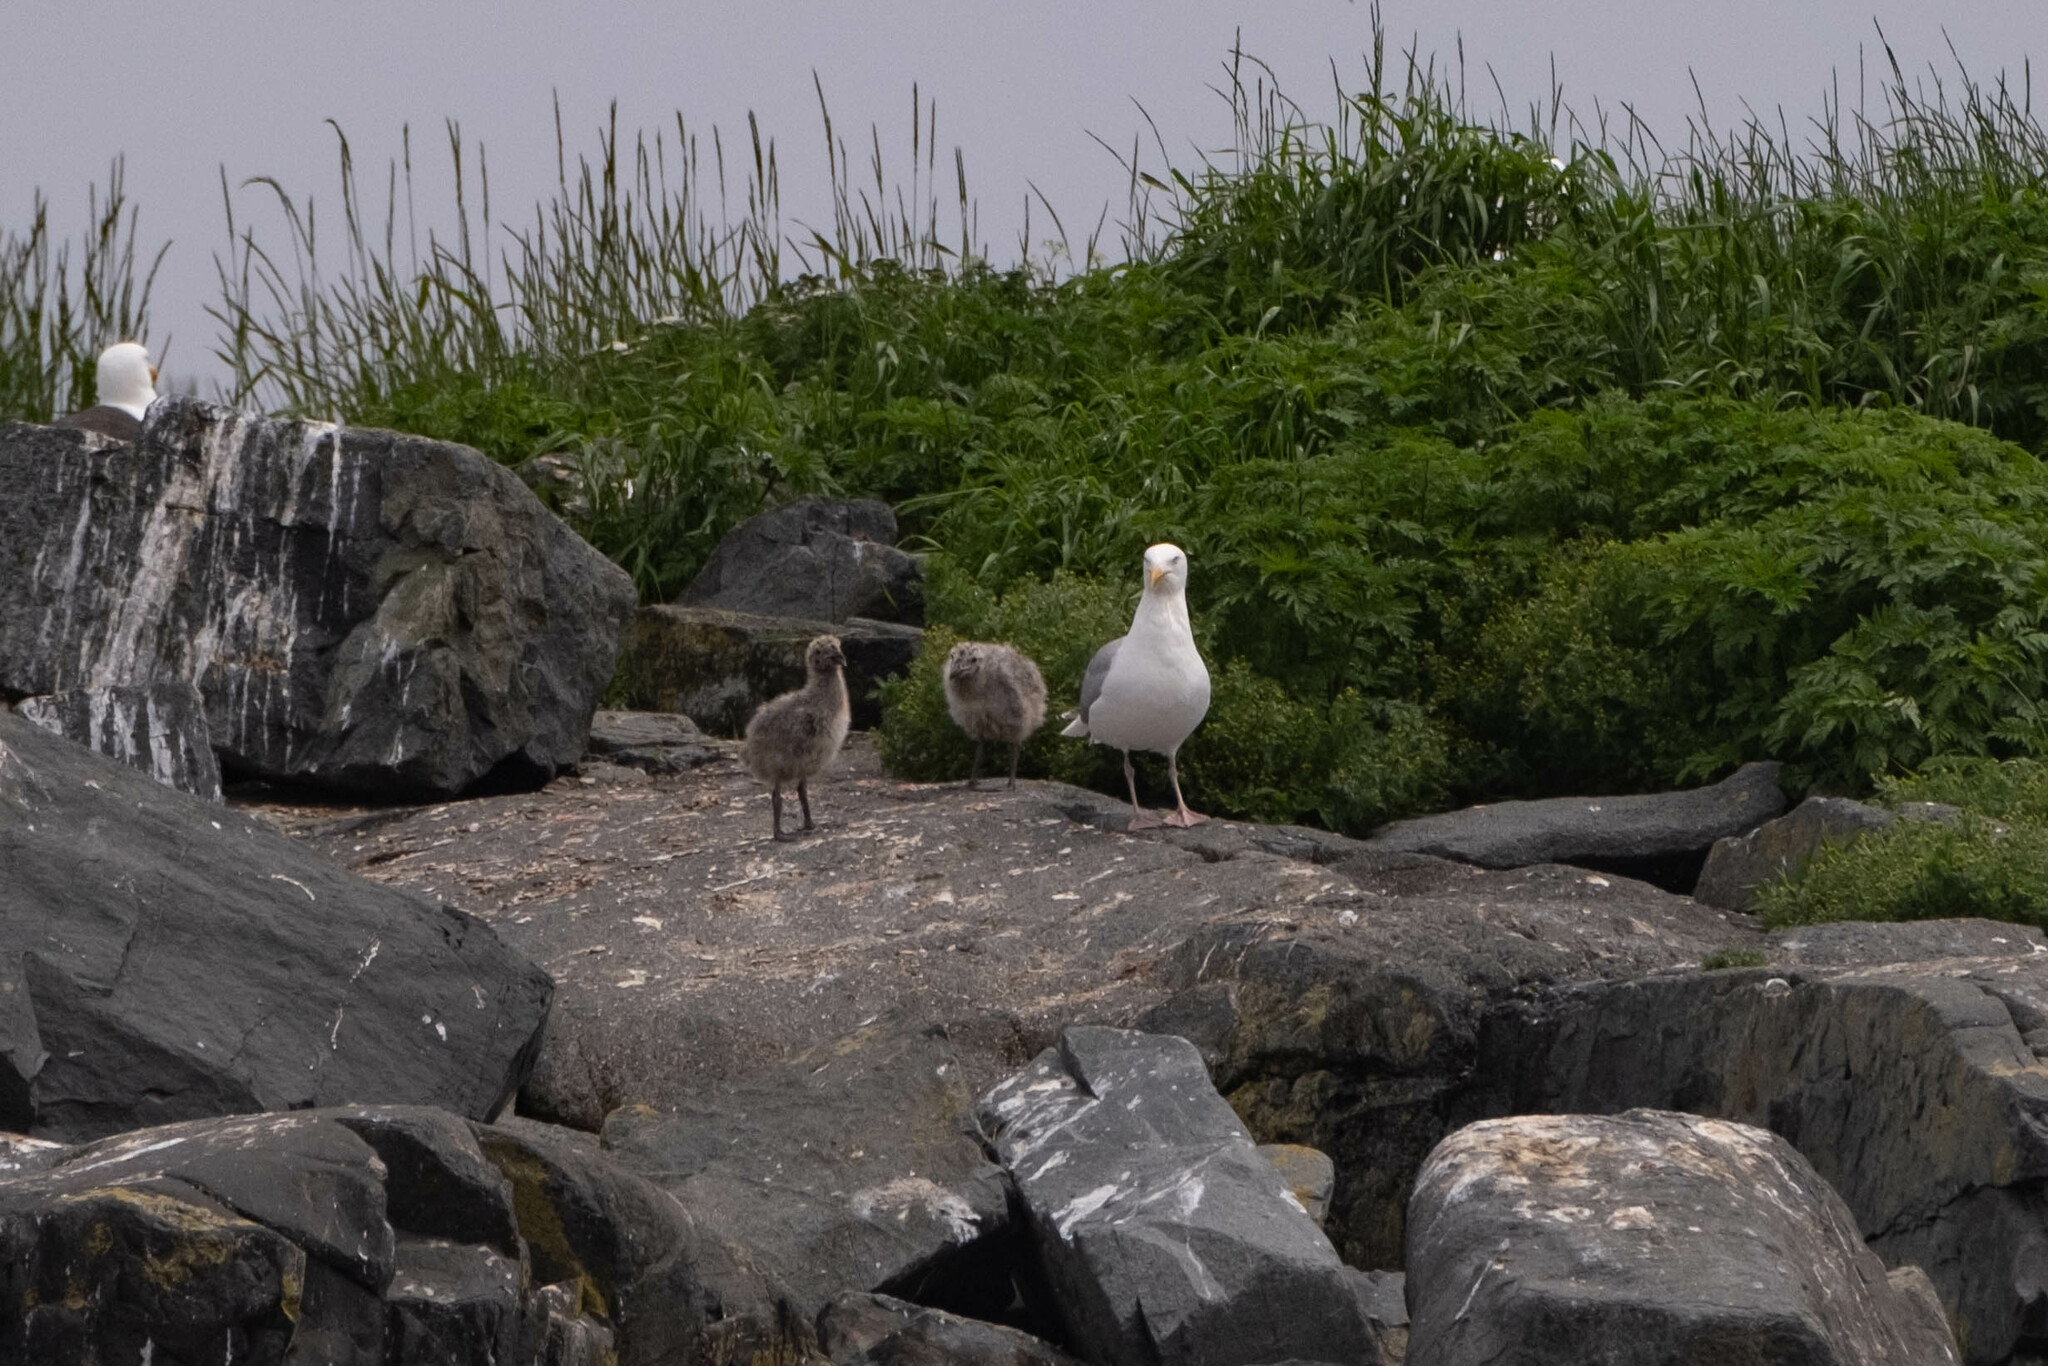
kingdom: Animalia
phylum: Chordata
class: Aves
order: Charadriiformes
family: Laridae
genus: Larus
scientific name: Larus argentatus
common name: Herring gull
